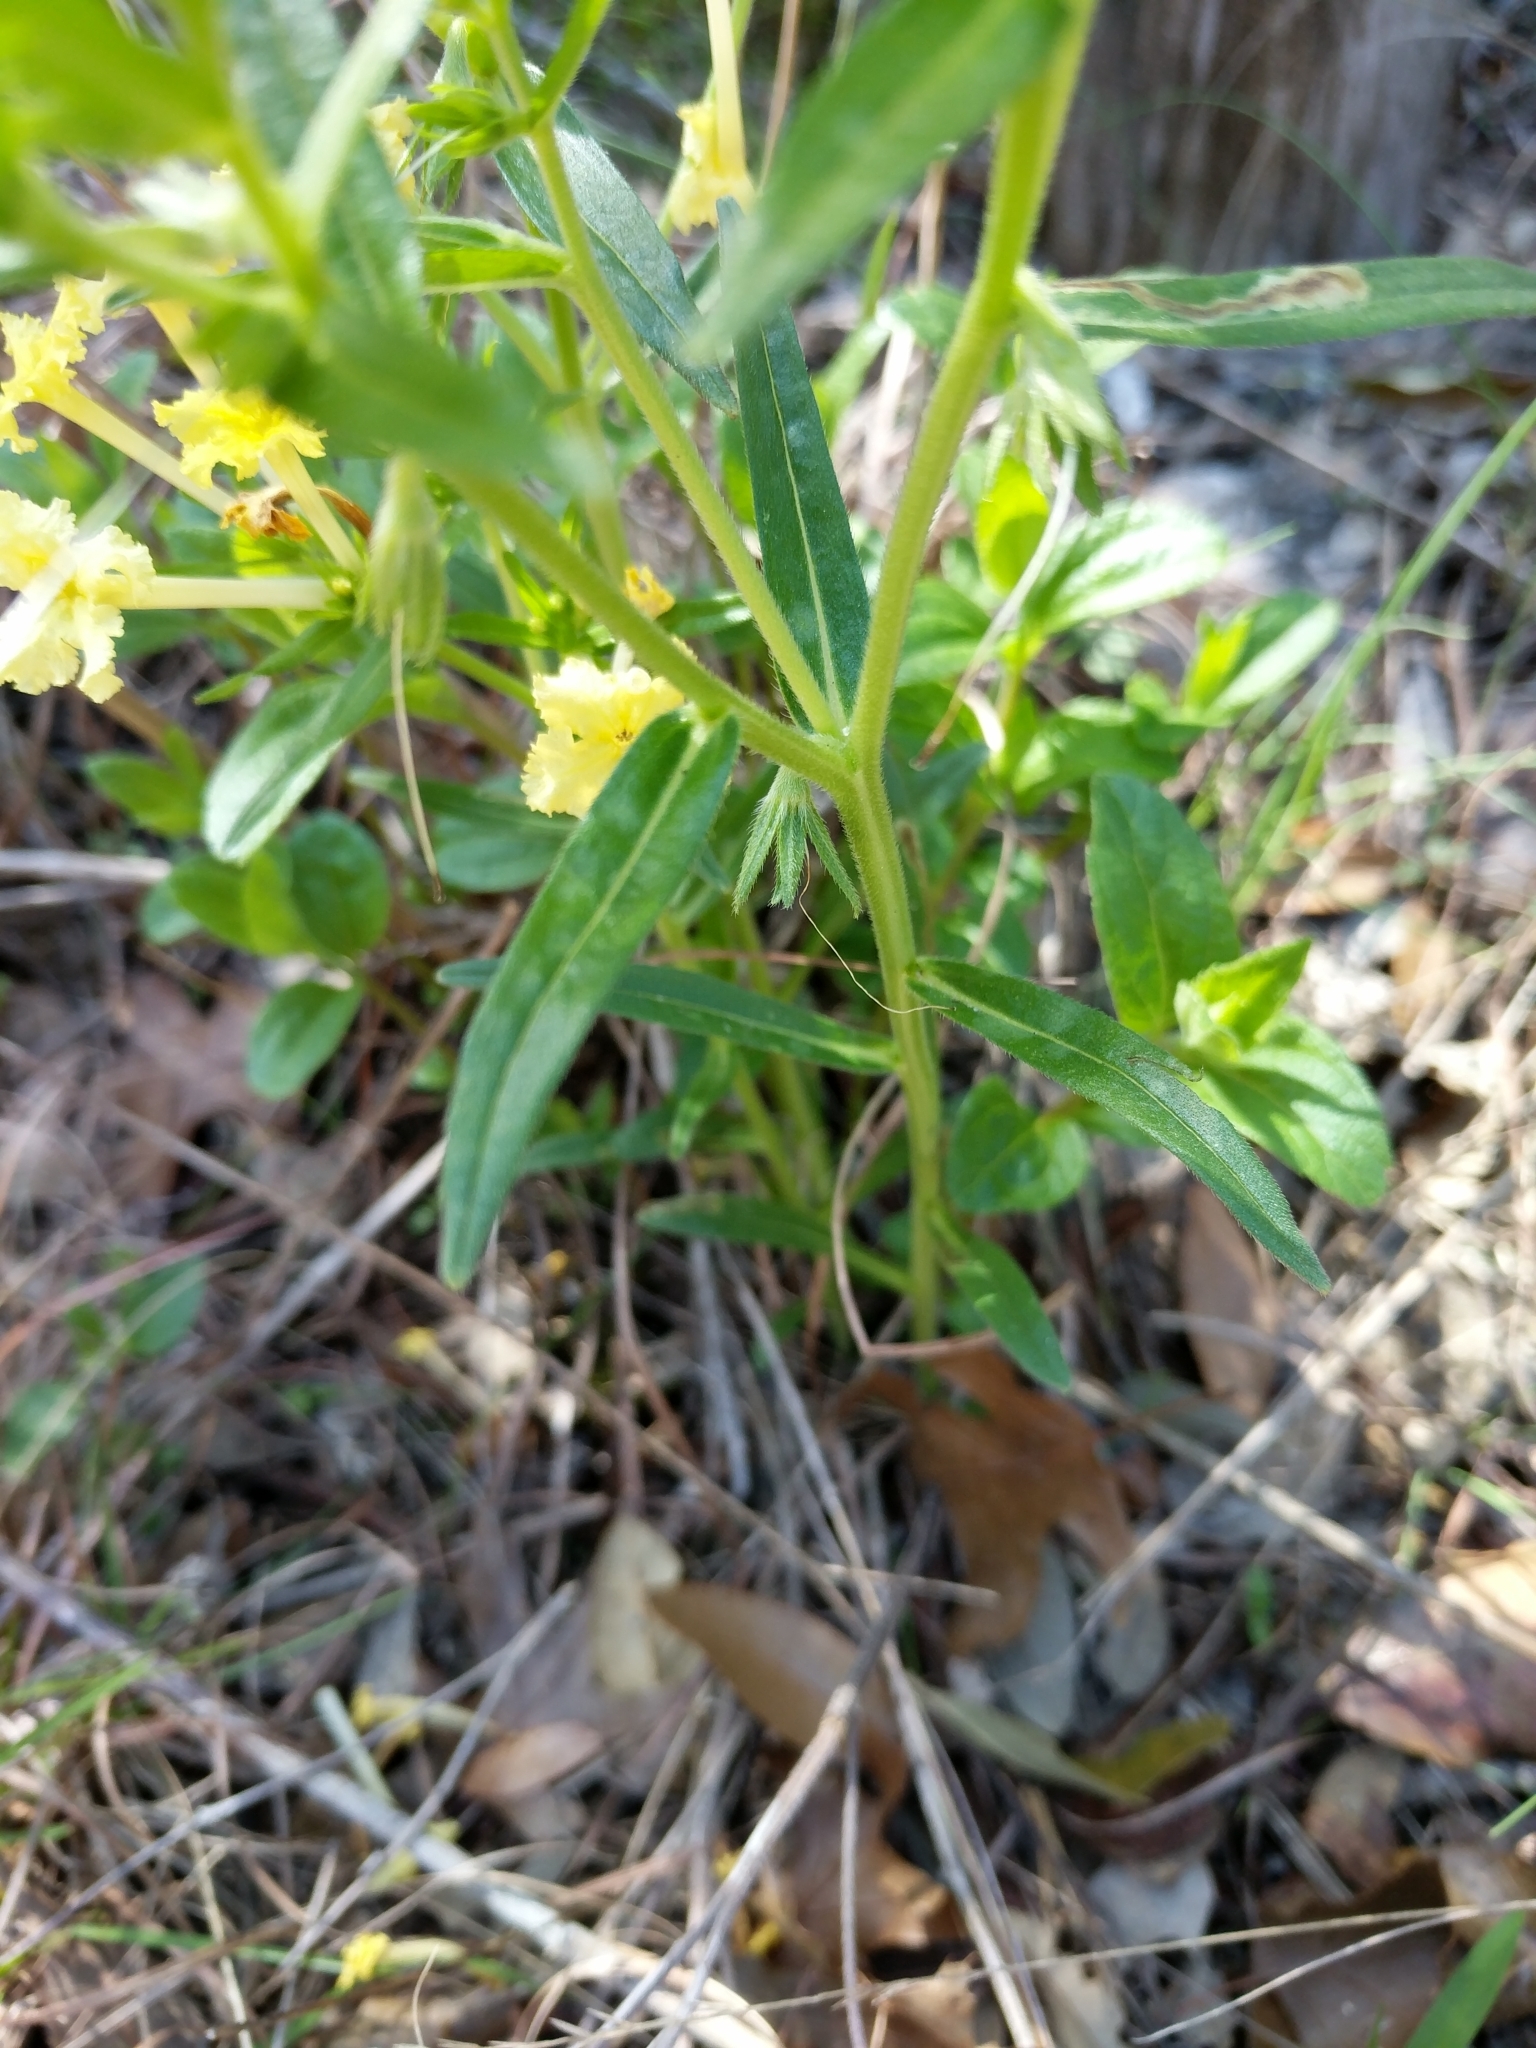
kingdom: Plantae
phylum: Tracheophyta
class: Magnoliopsida
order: Boraginales
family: Boraginaceae
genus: Lithospermum
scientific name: Lithospermum incisum
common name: Fringed gromwell
